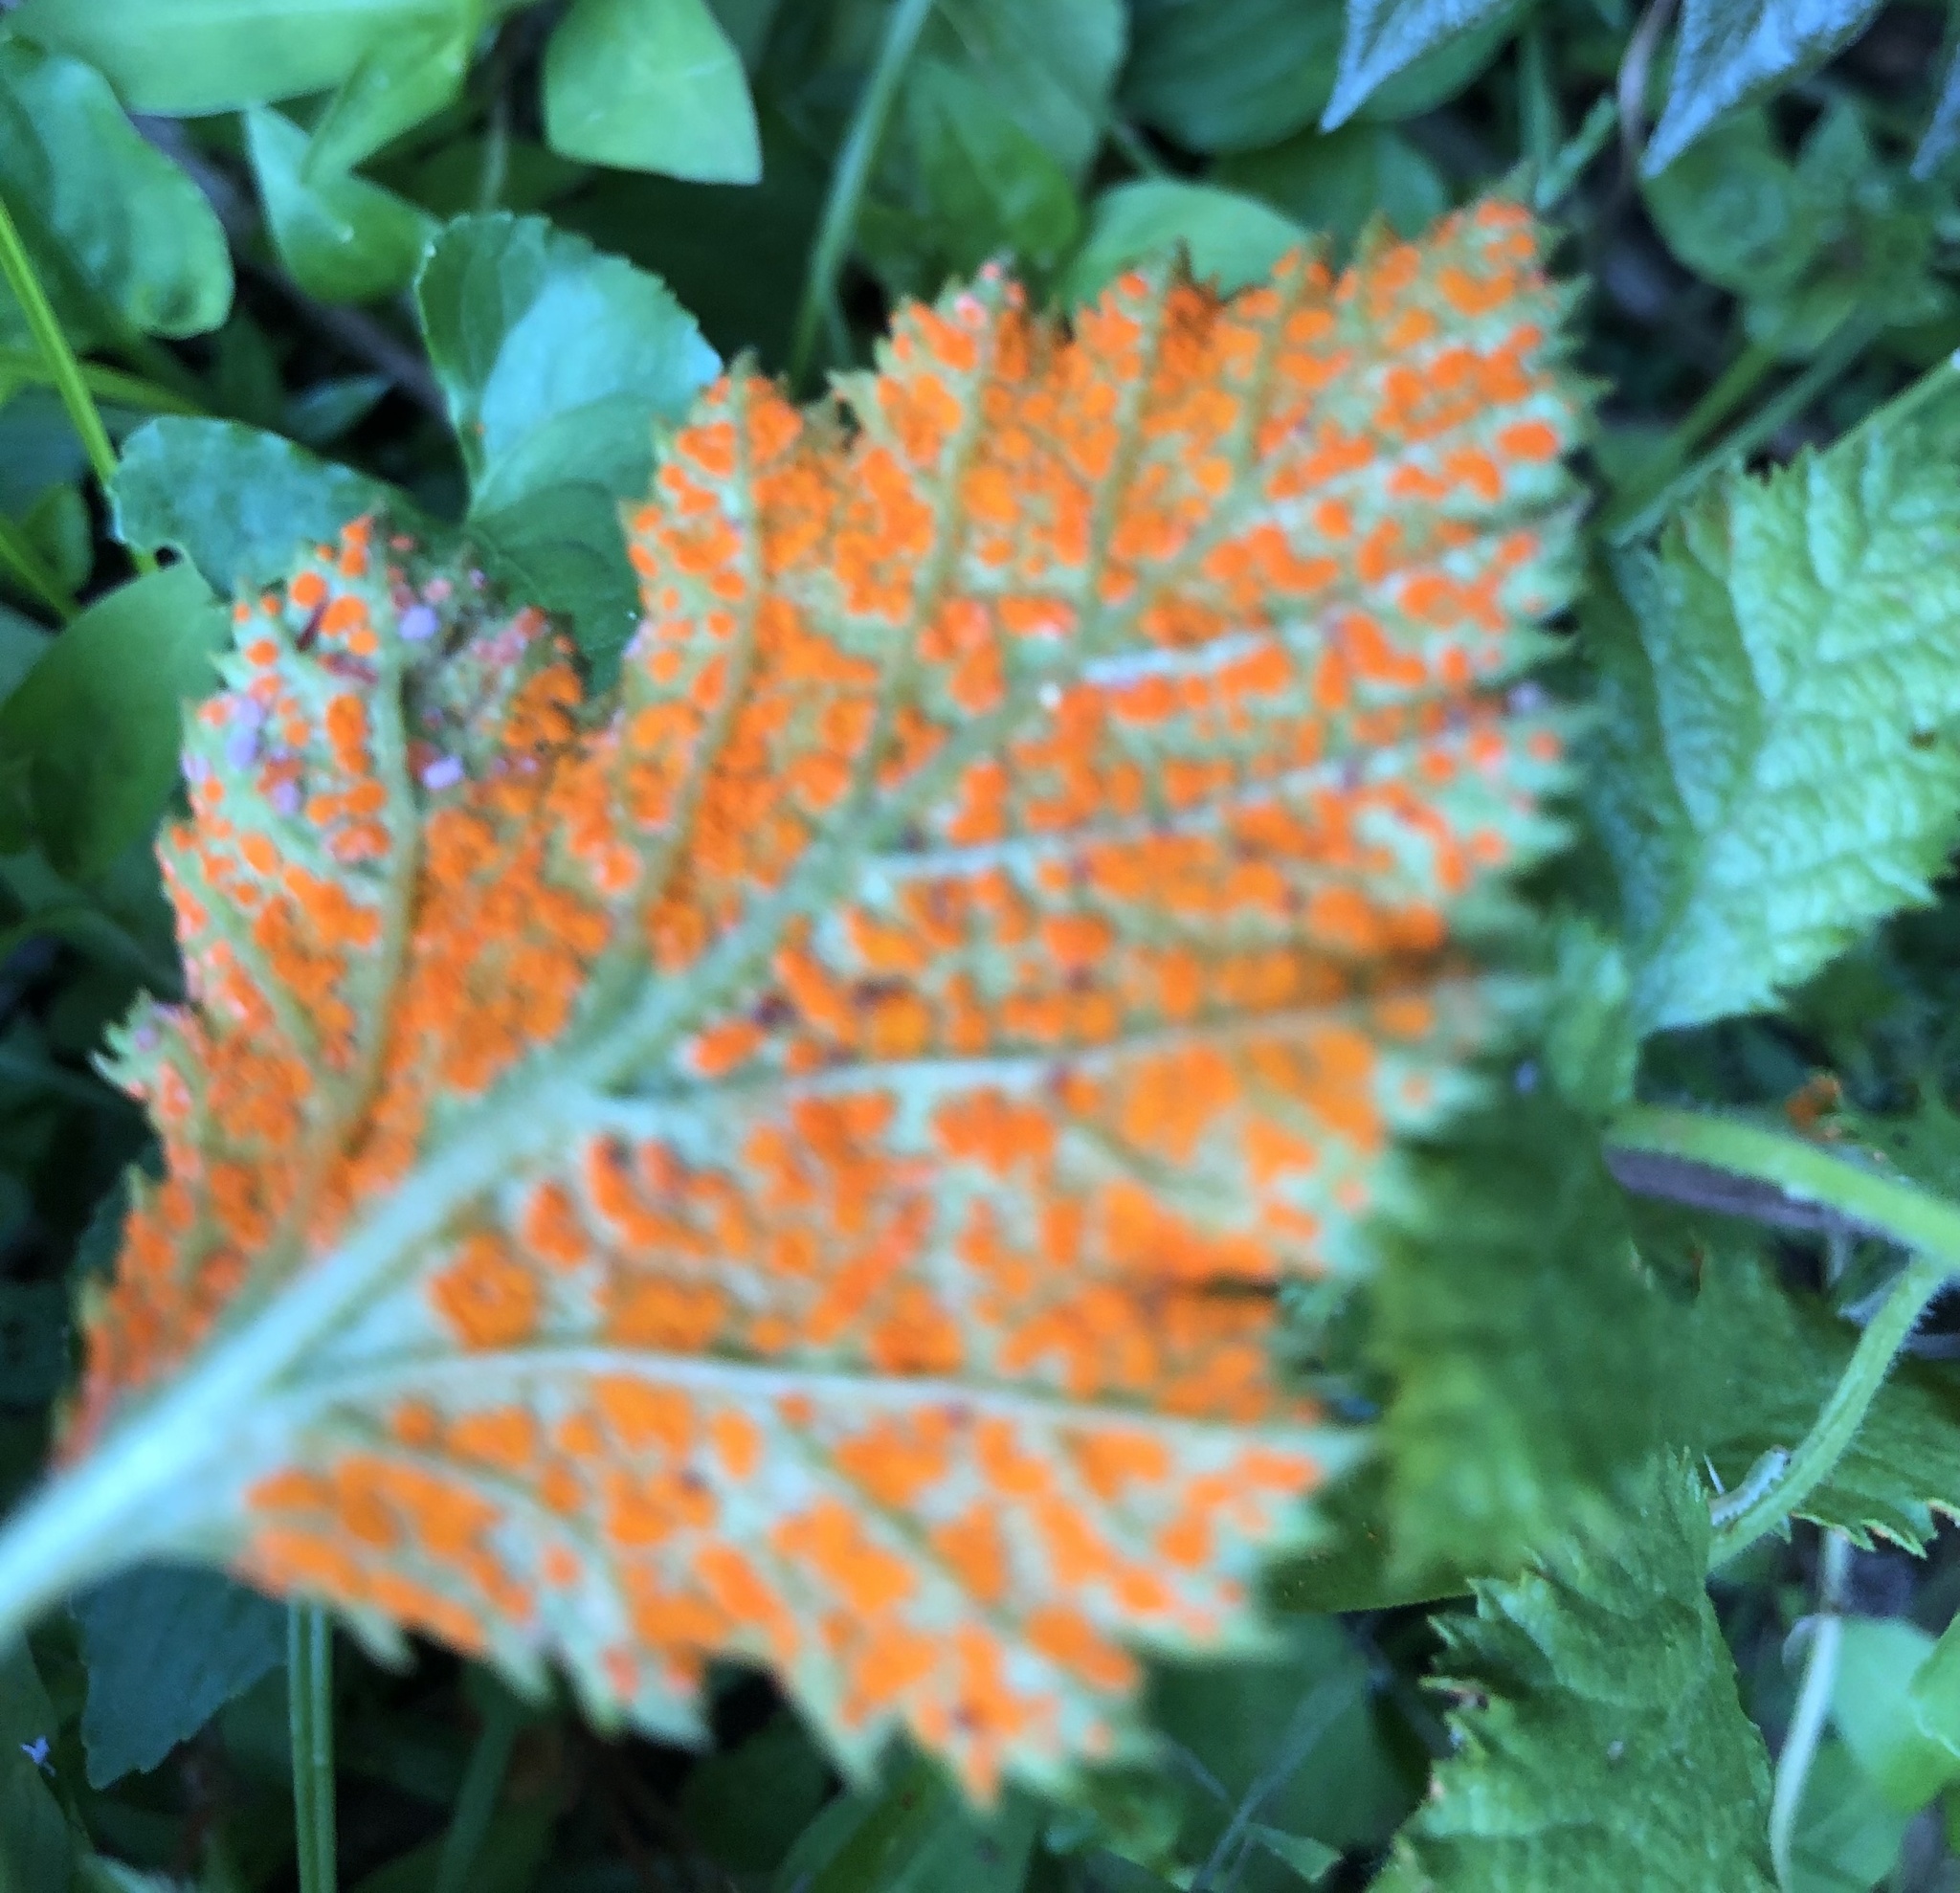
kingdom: Fungi
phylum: Basidiomycota
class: Pucciniomycetes
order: Pucciniales
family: Phragmidiaceae
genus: Arthuriomyces
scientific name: Arthuriomyces peckianus
